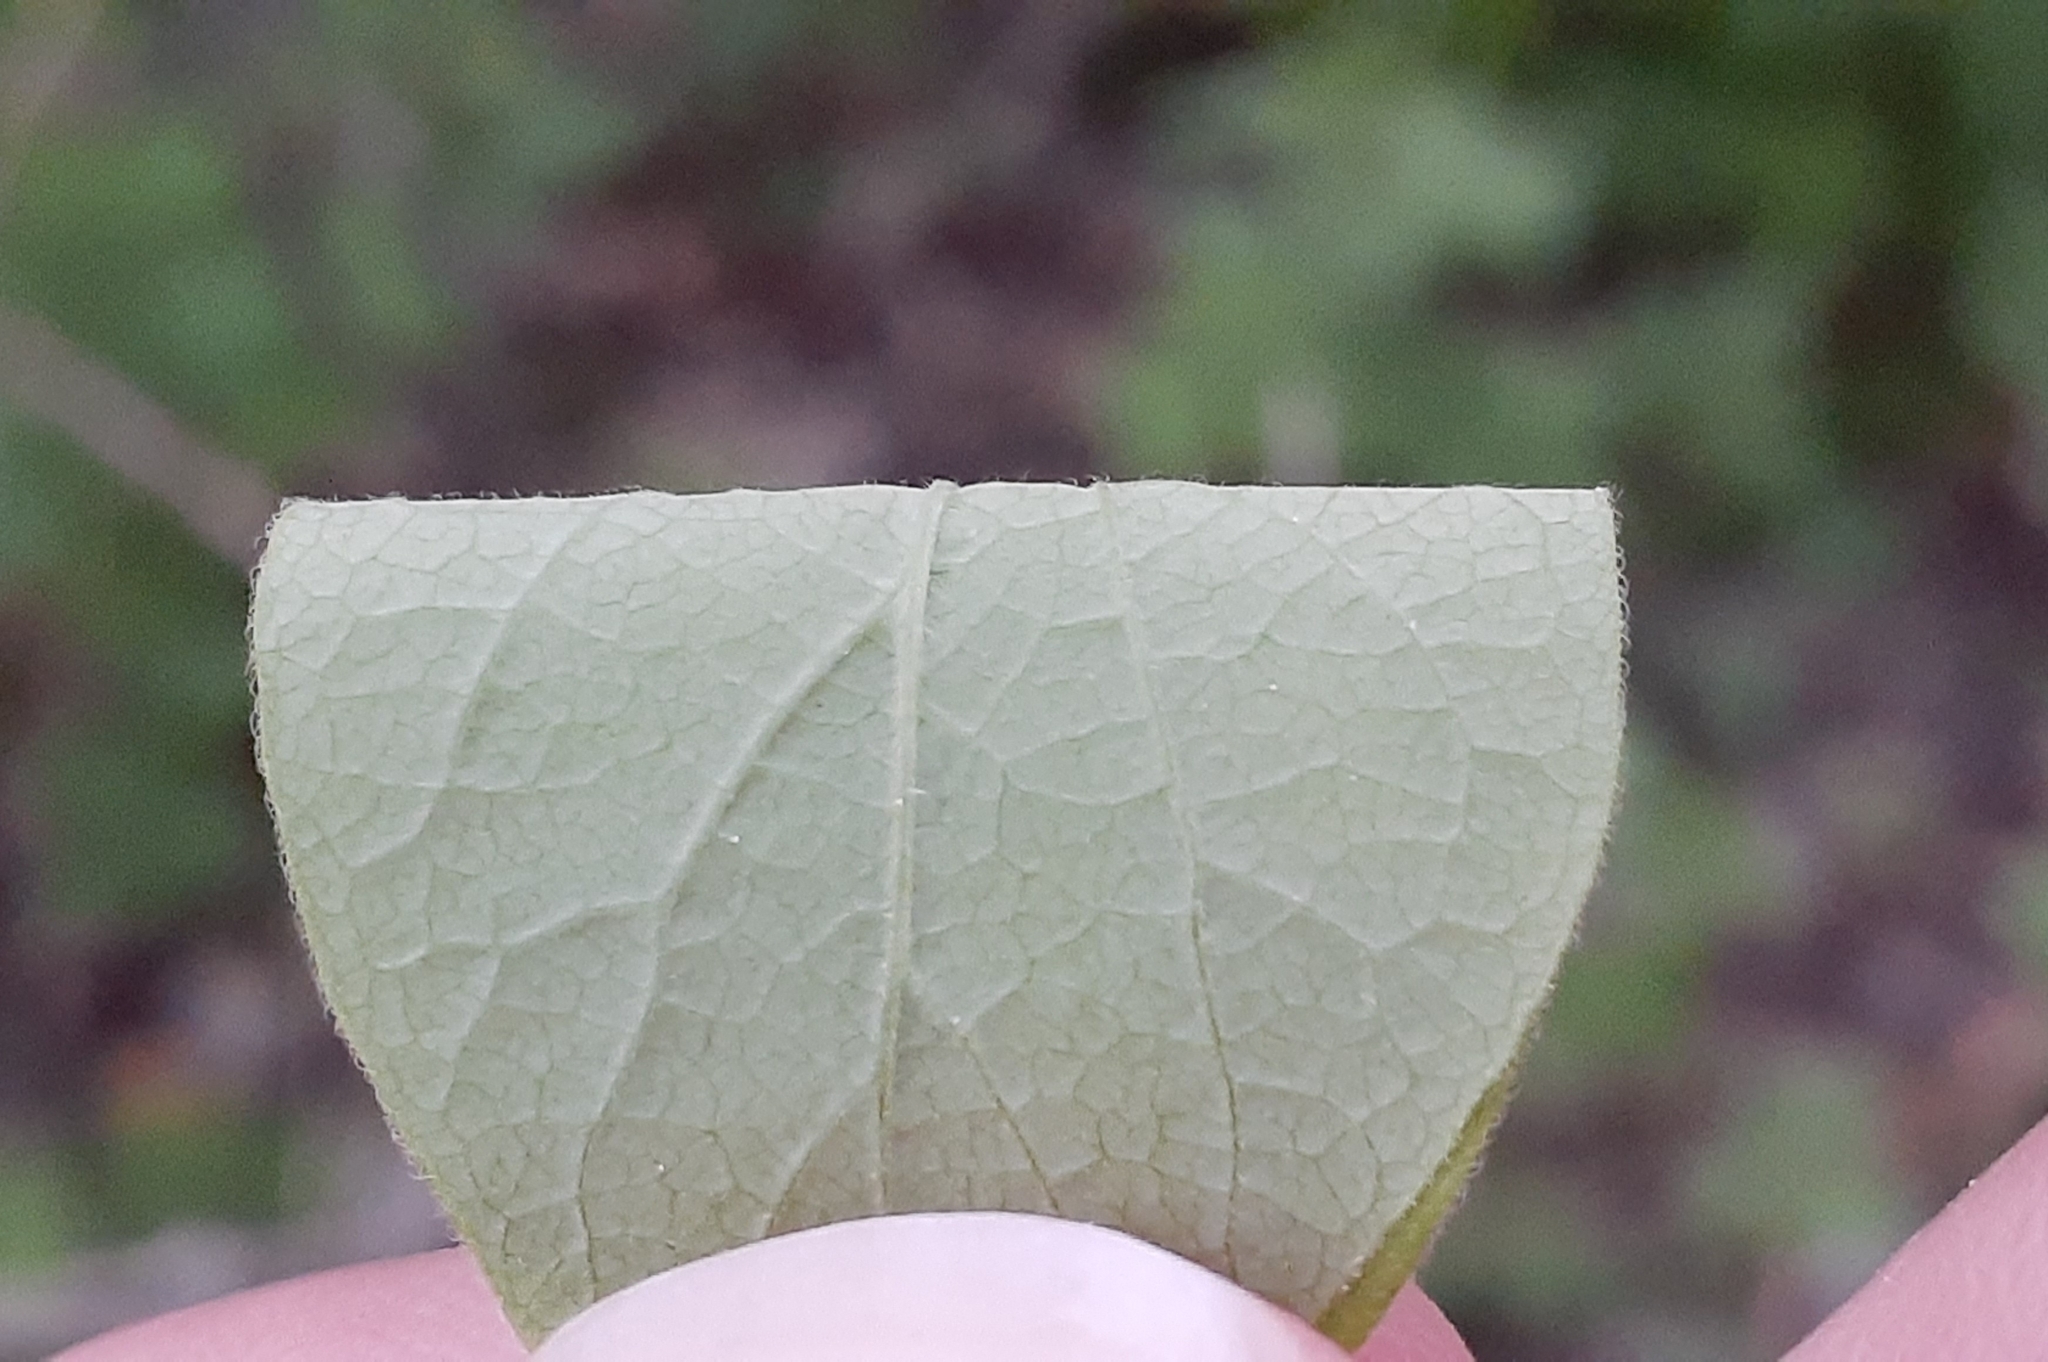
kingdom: Plantae
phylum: Tracheophyta
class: Magnoliopsida
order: Dipsacales
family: Caprifoliaceae
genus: Lonicera
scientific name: Lonicera bella
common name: Bell's honeysuckle
